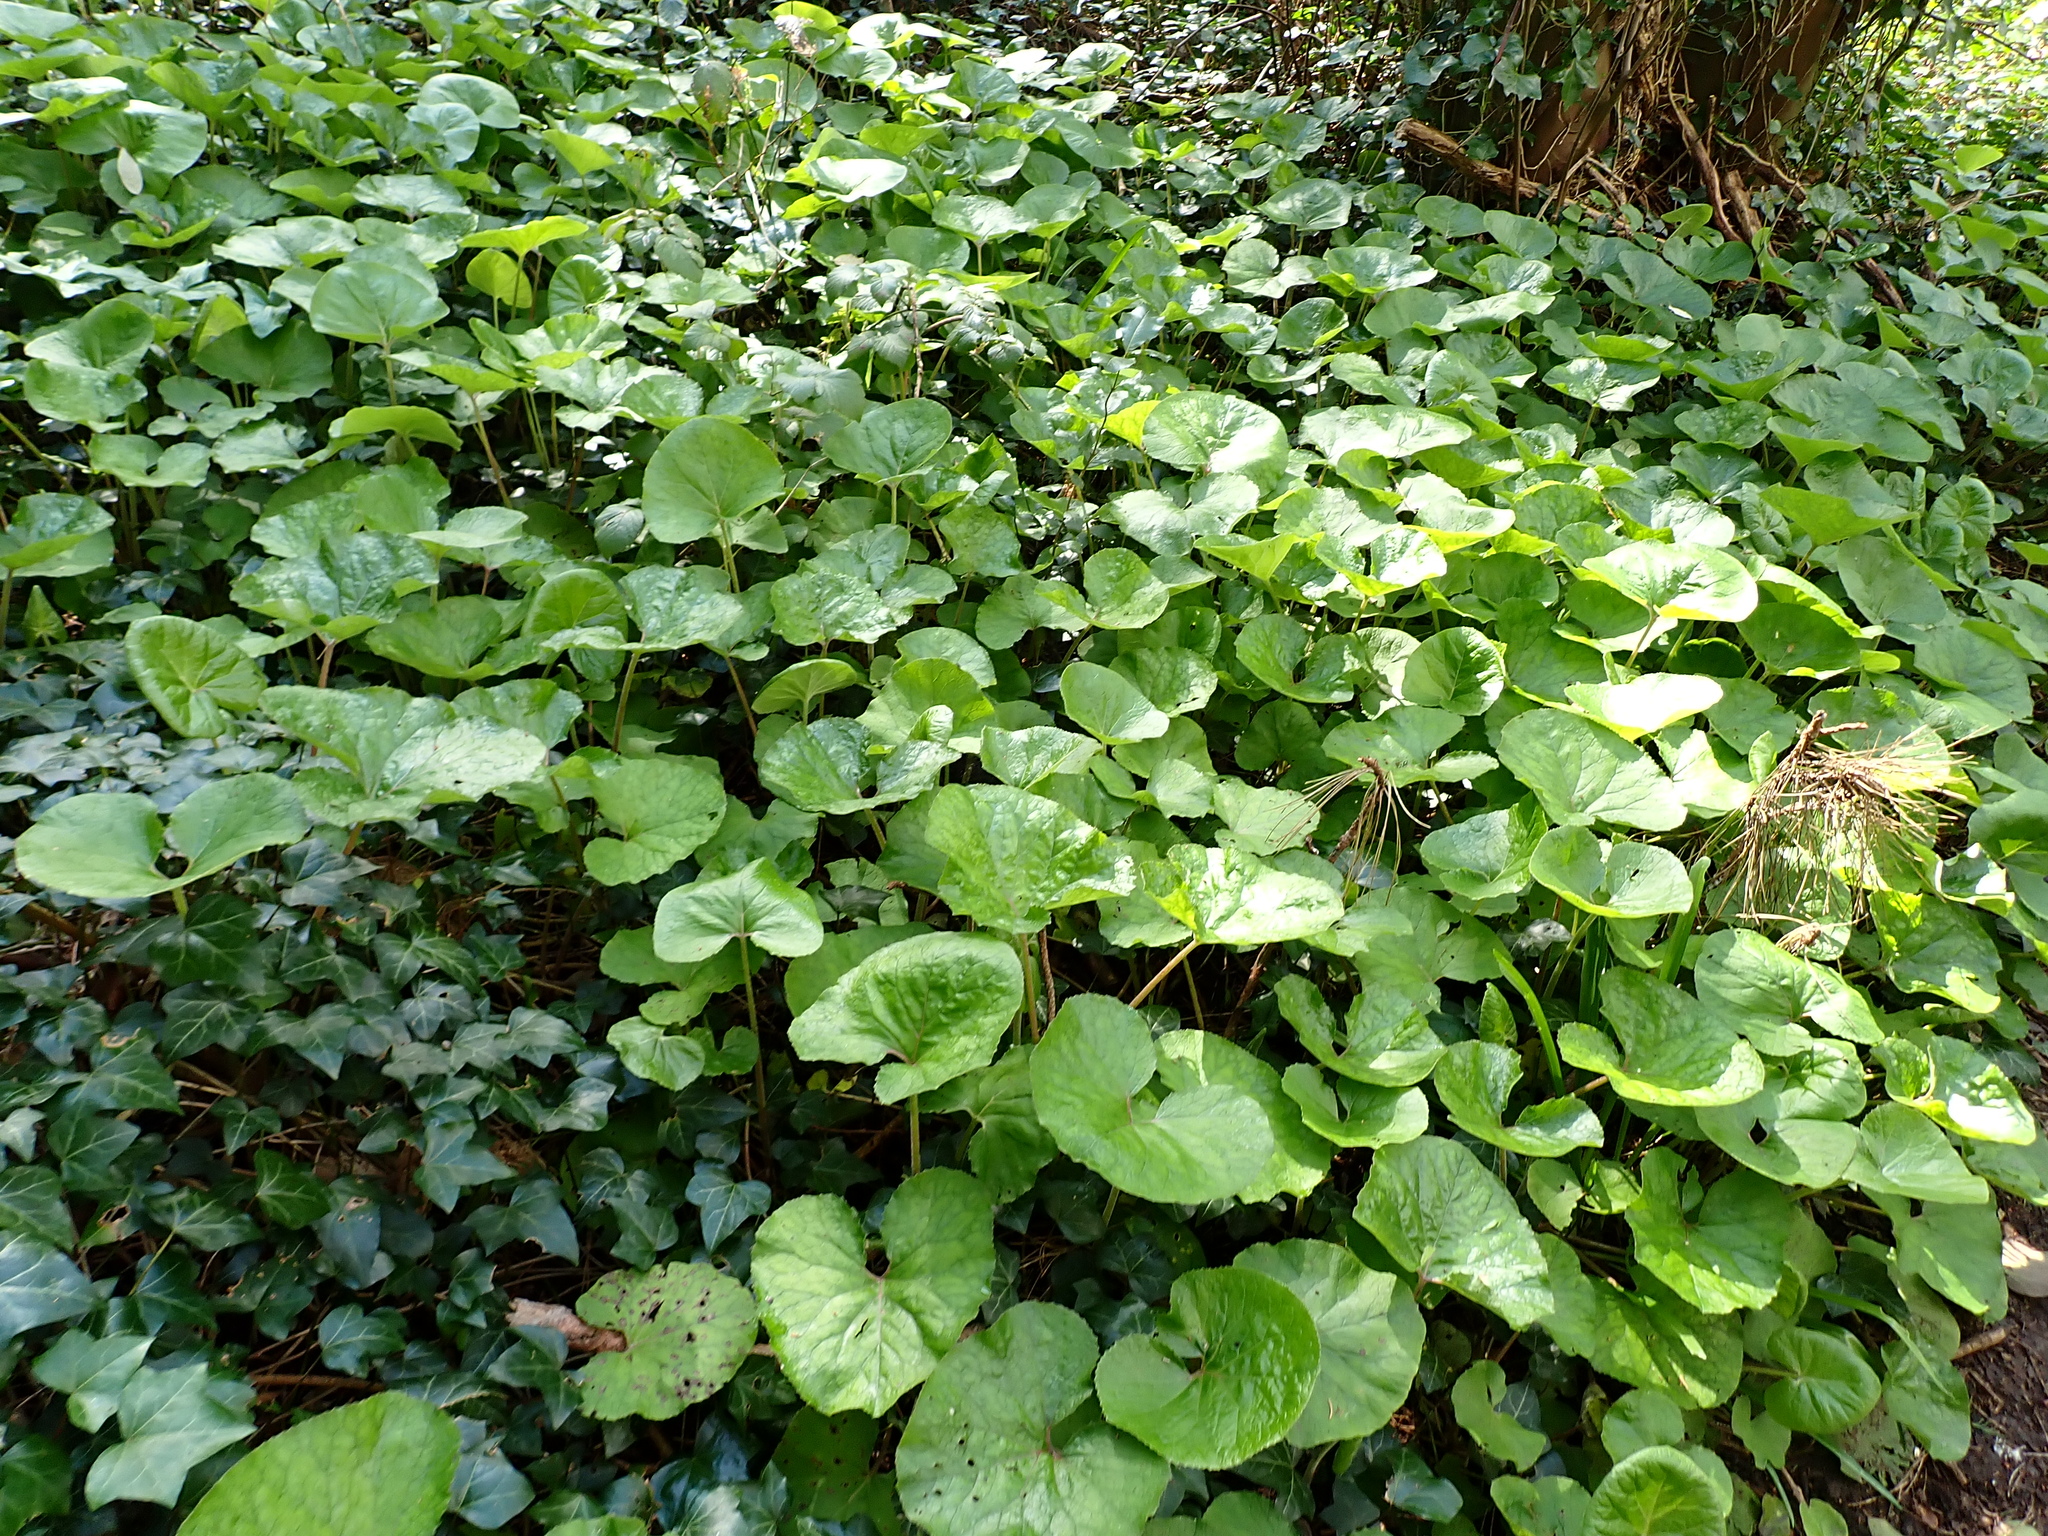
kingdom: Plantae
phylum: Tracheophyta
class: Magnoliopsida
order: Asterales
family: Asteraceae
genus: Petasites
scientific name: Petasites pyrenaicus
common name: Winter heliotrope
